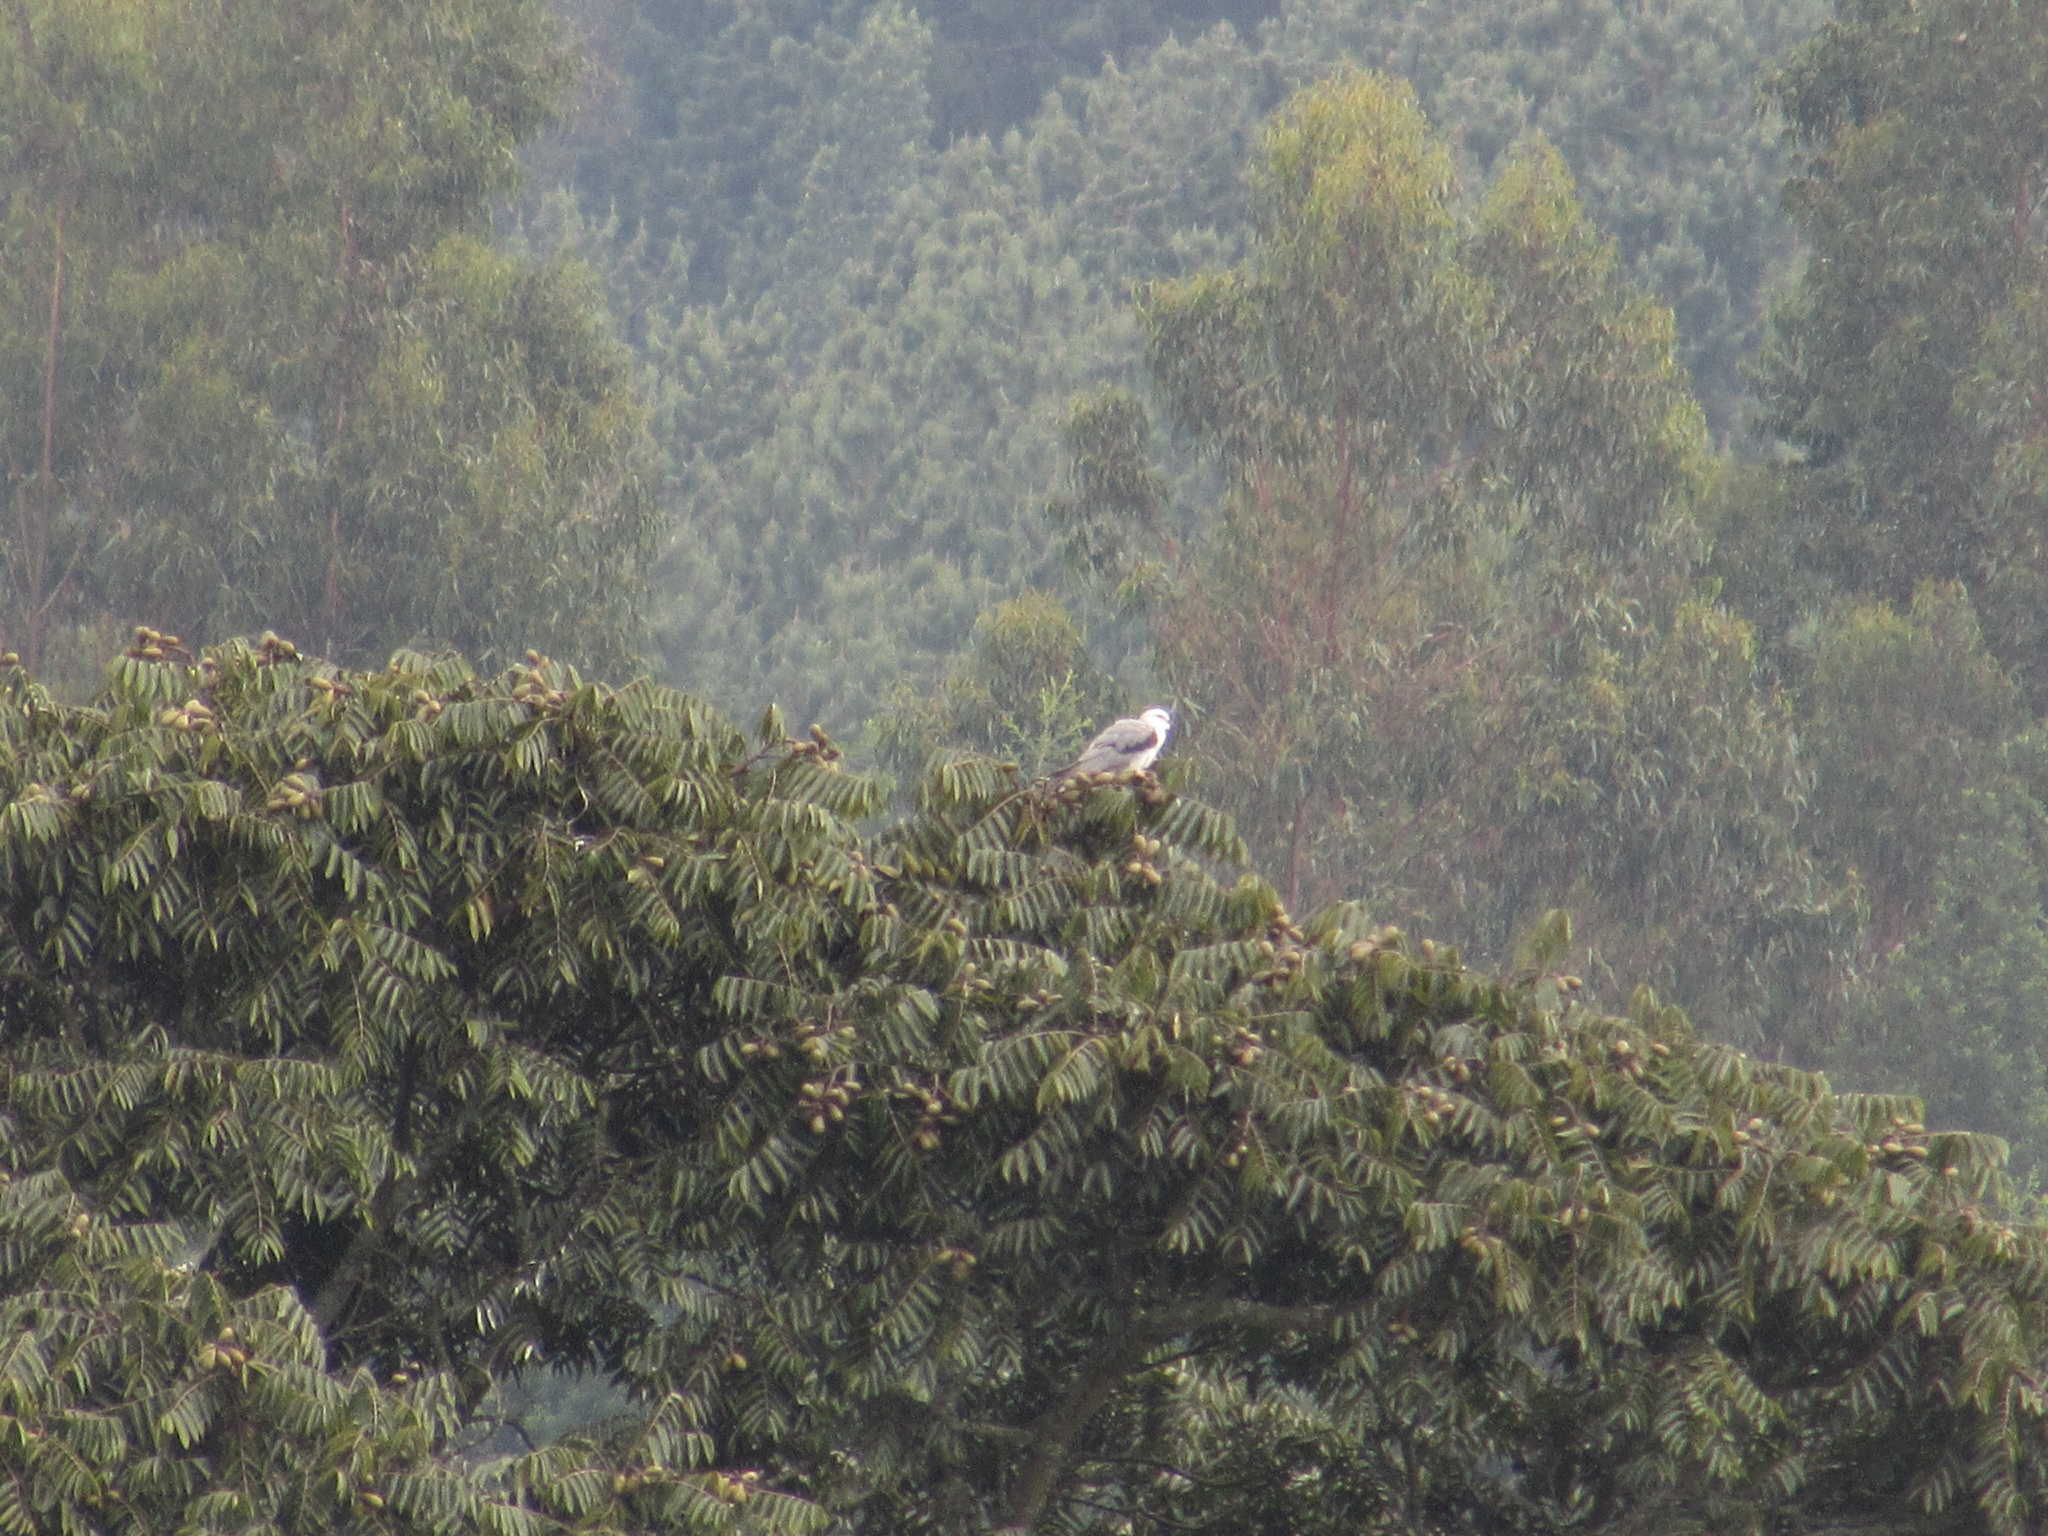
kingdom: Animalia
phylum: Chordata
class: Aves
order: Accipitriformes
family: Accipitridae
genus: Elanus
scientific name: Elanus leucurus
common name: White-tailed kite
